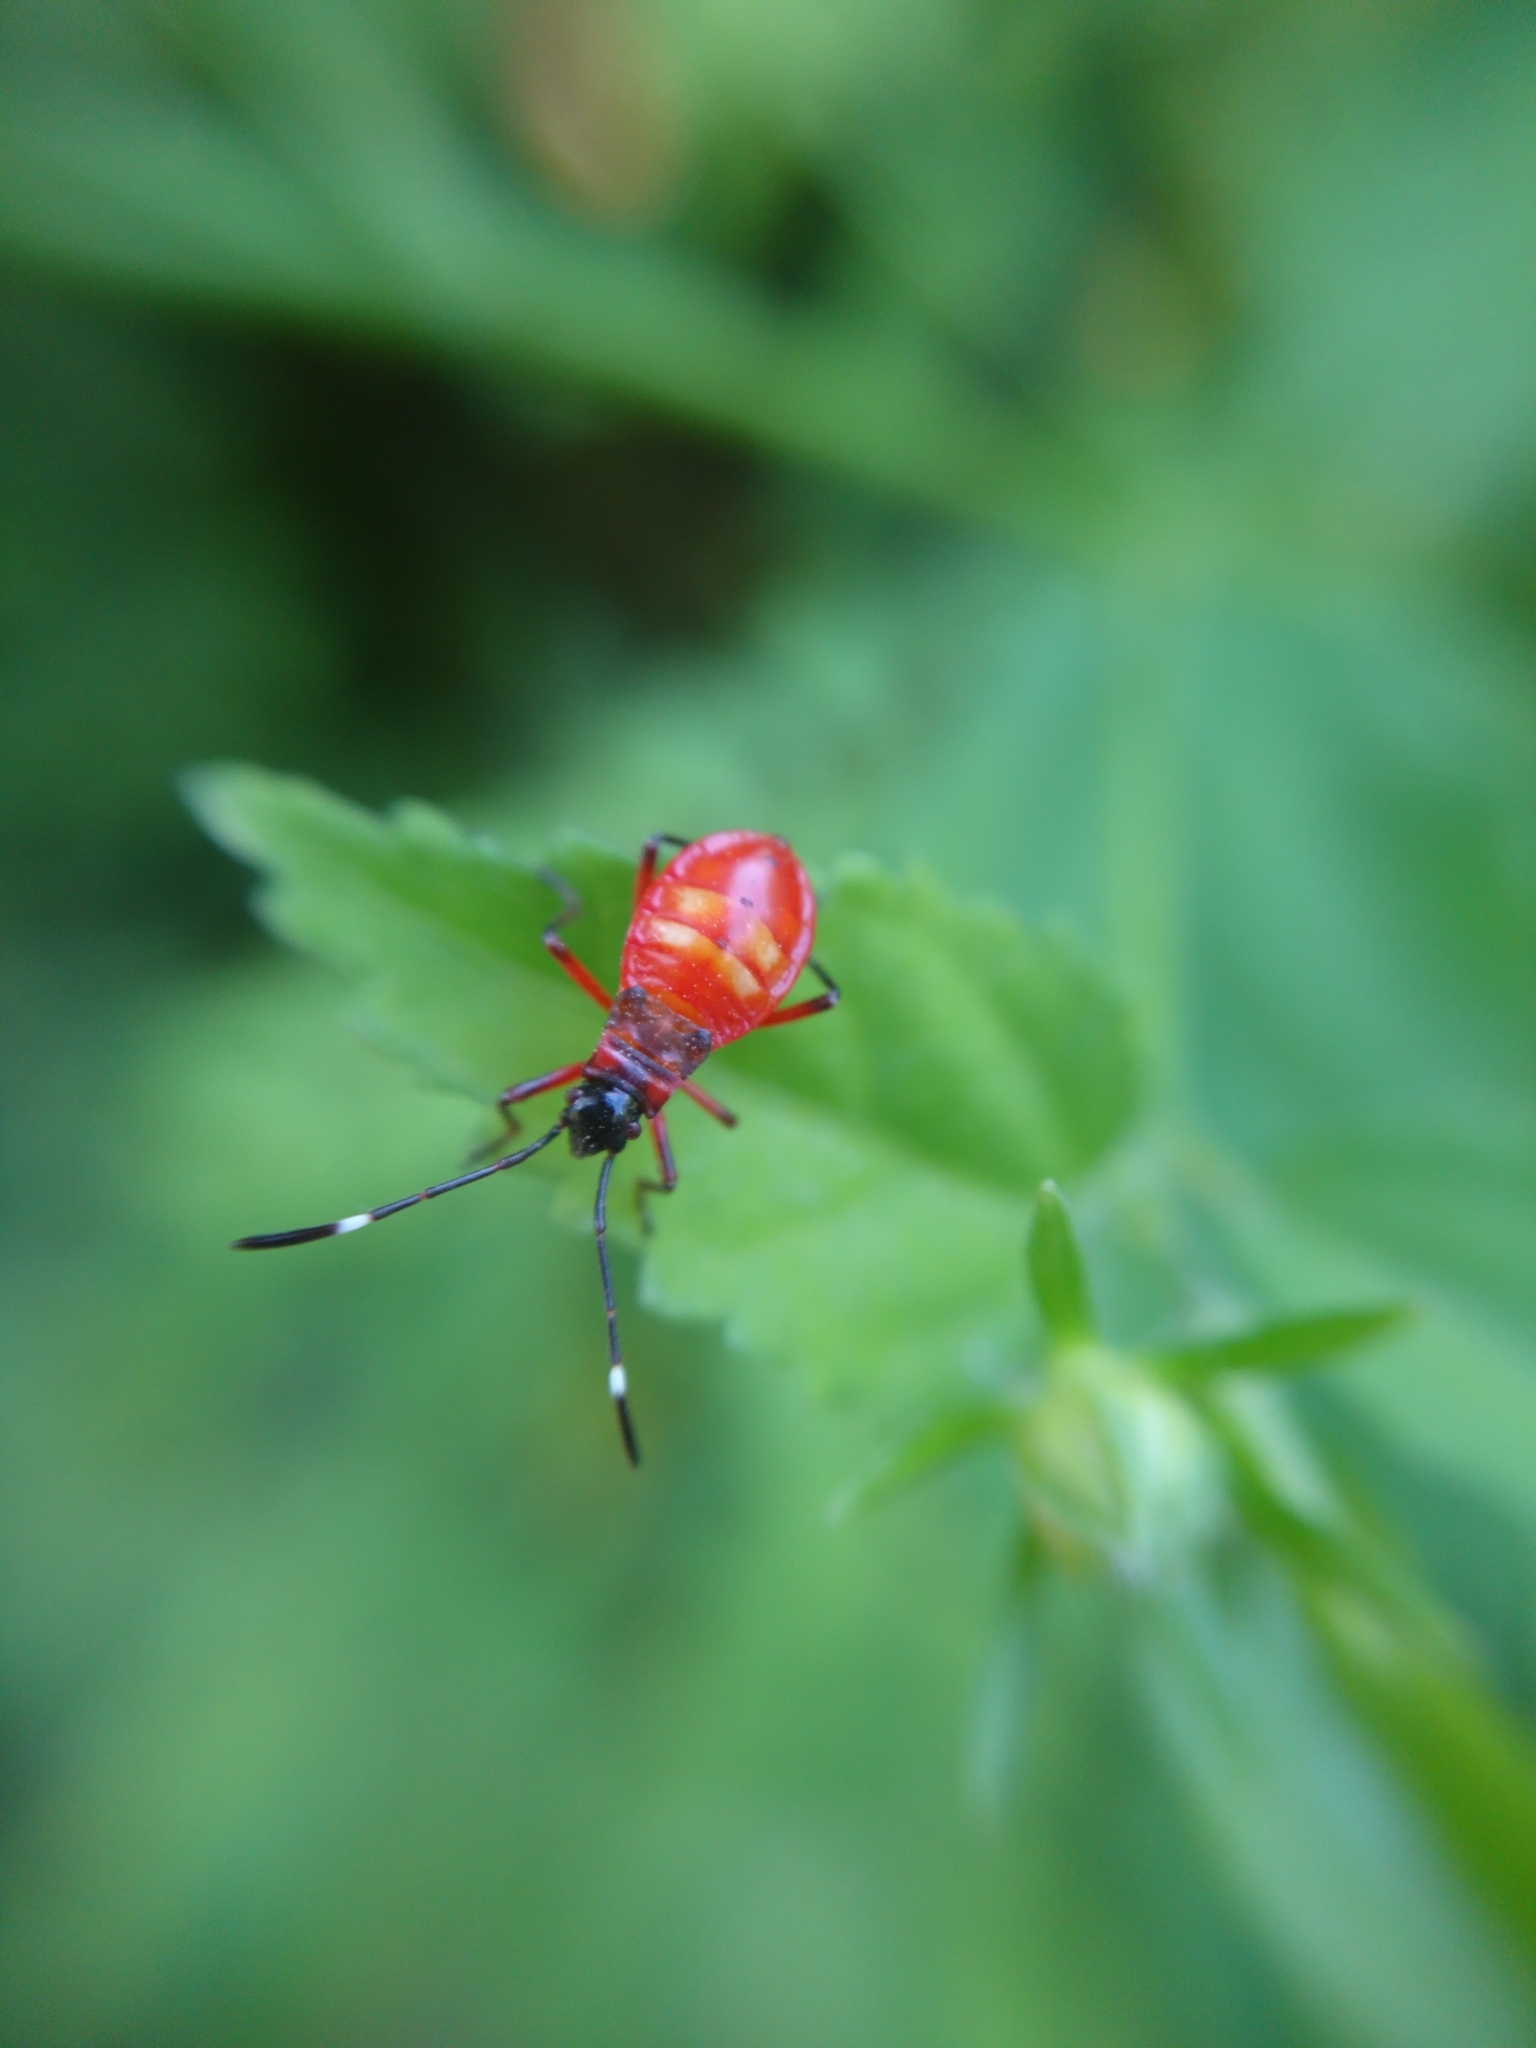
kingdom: Animalia
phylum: Arthropoda
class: Insecta
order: Hemiptera
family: Pyrrhocoridae
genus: Dysdercus
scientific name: Dysdercus
